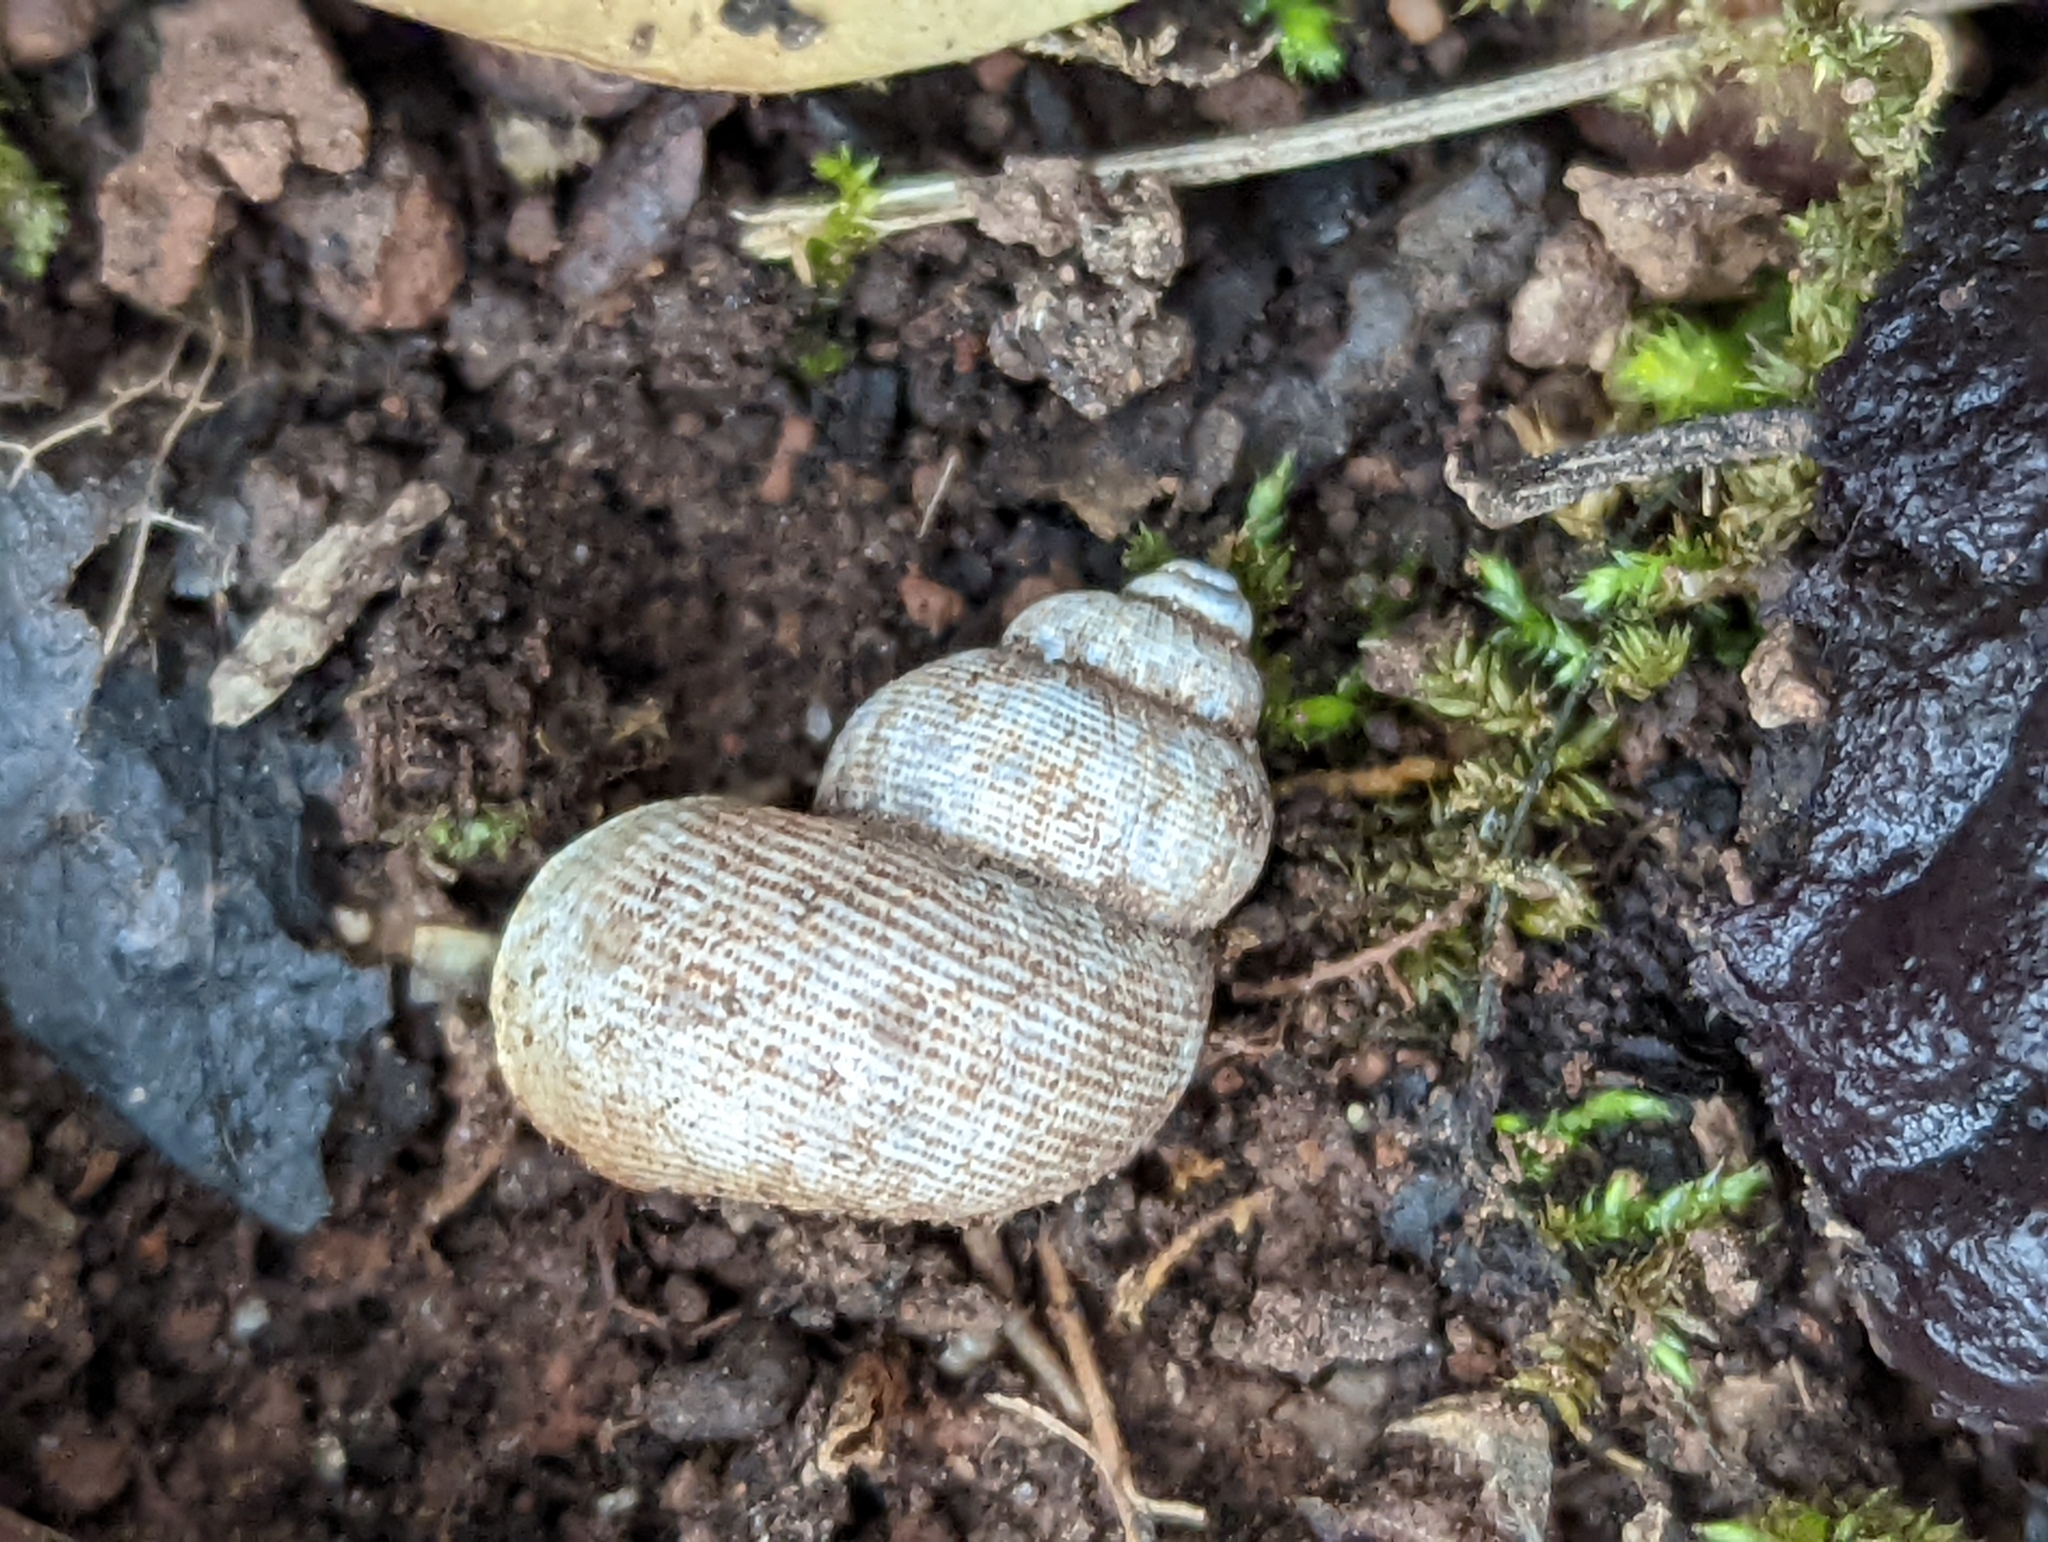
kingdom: Animalia
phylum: Mollusca
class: Gastropoda
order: Littorinimorpha
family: Pomatiidae
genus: Pomatias
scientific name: Pomatias elegans
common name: Red-mouthed snail
